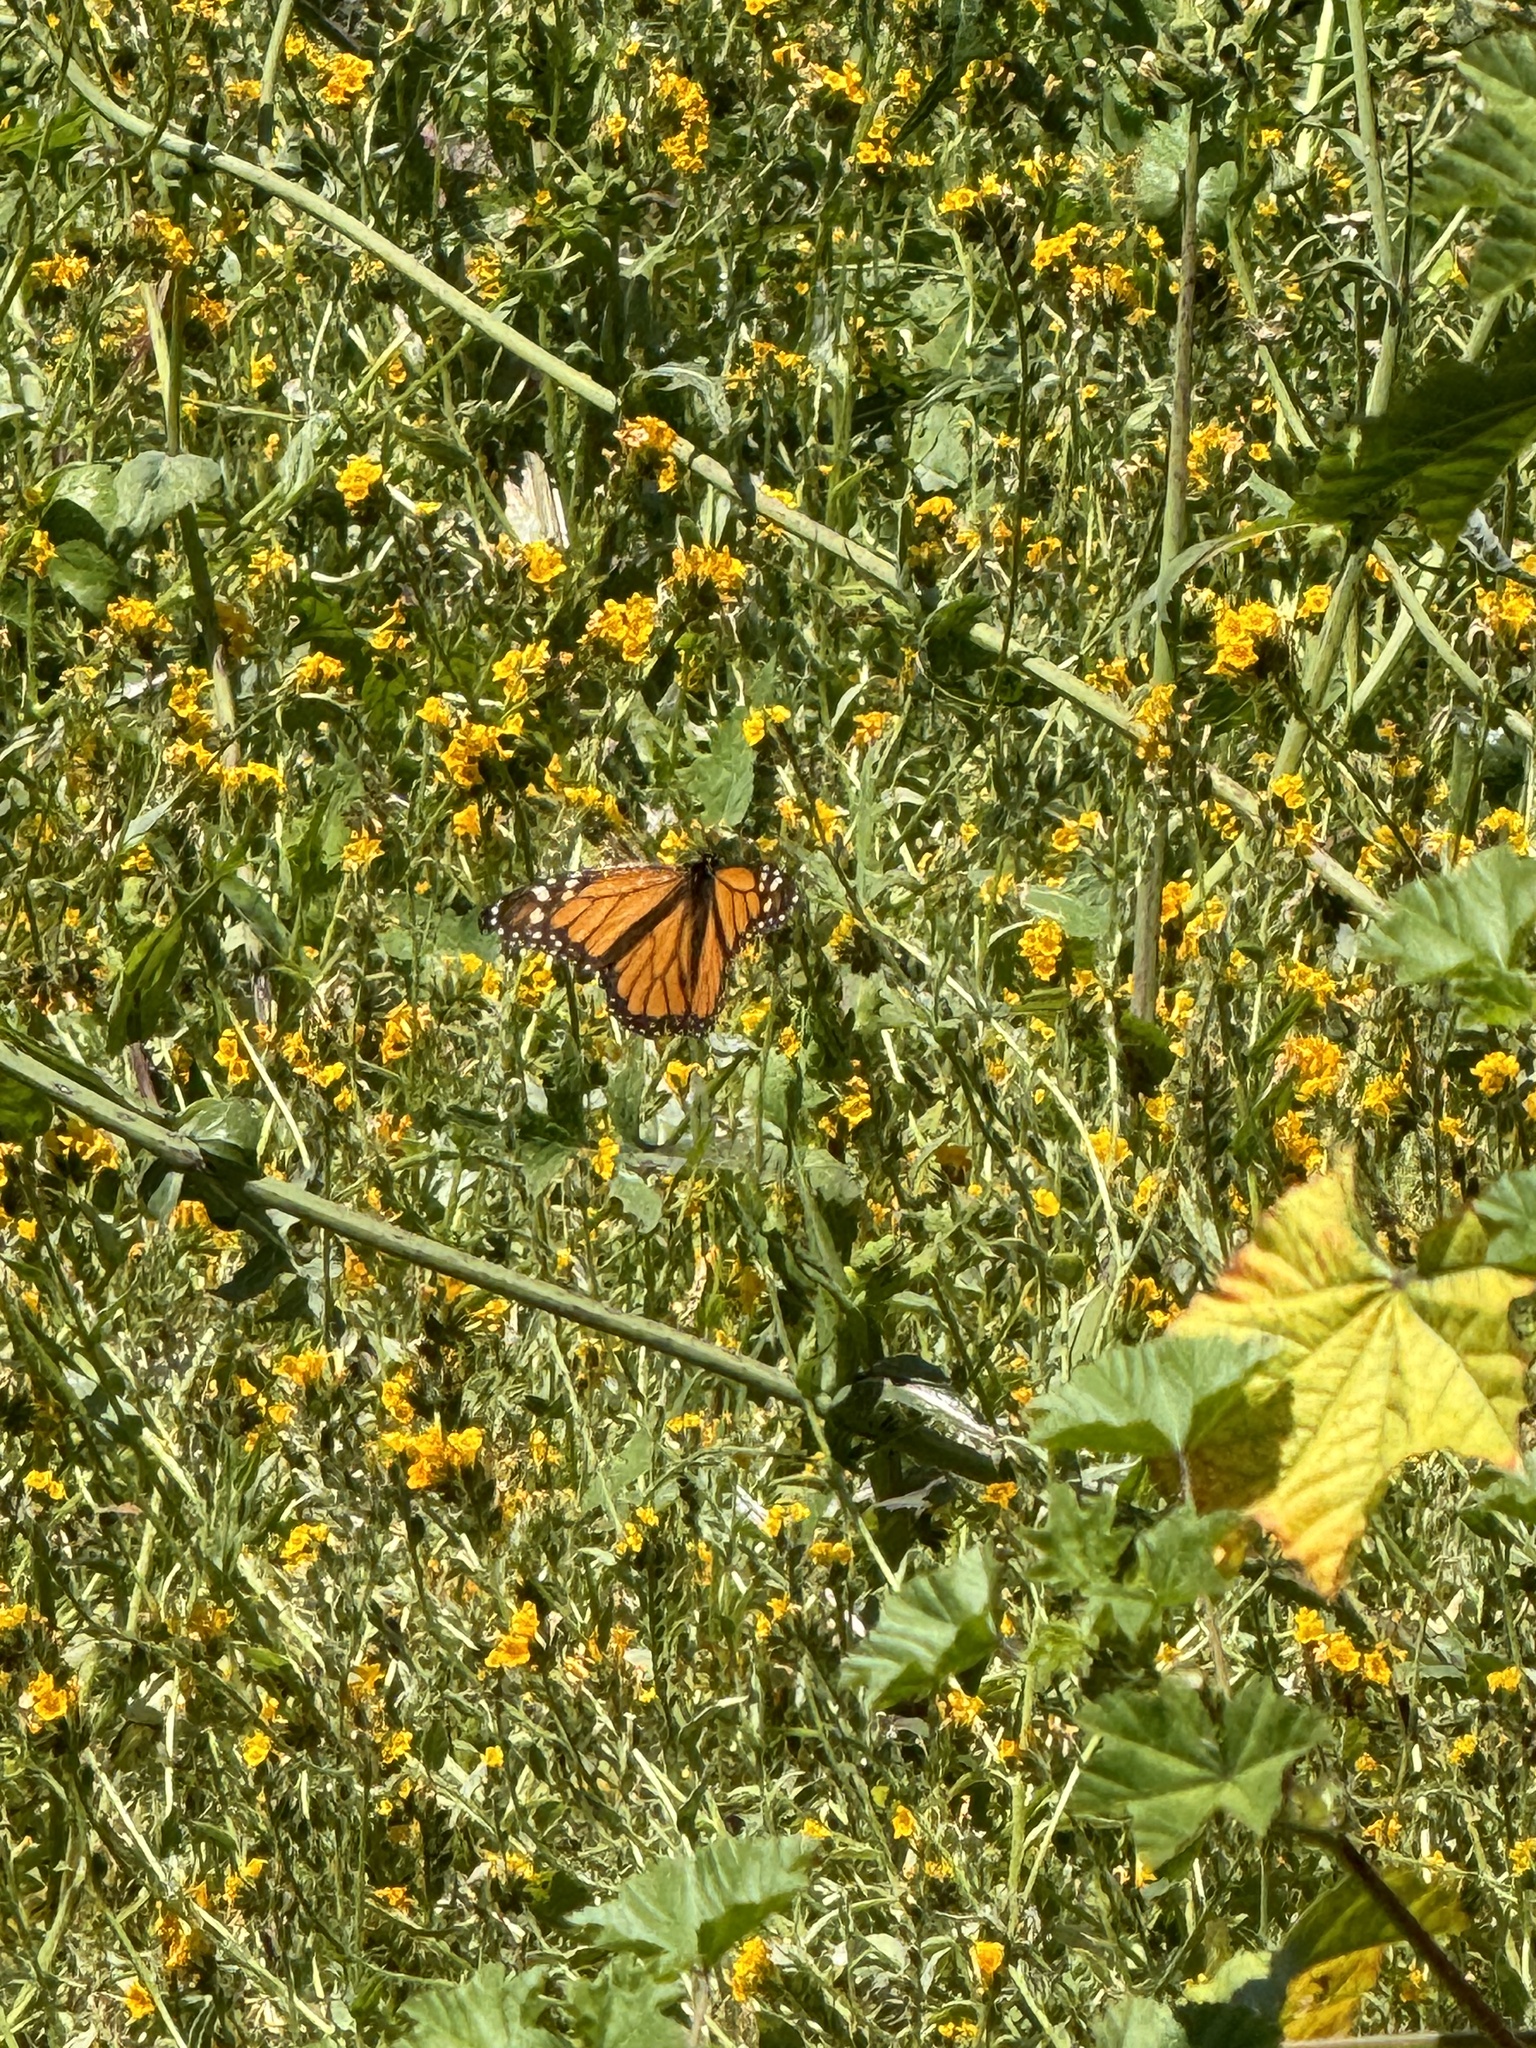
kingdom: Animalia
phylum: Arthropoda
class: Insecta
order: Lepidoptera
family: Nymphalidae
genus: Danaus
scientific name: Danaus plexippus
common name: Monarch
